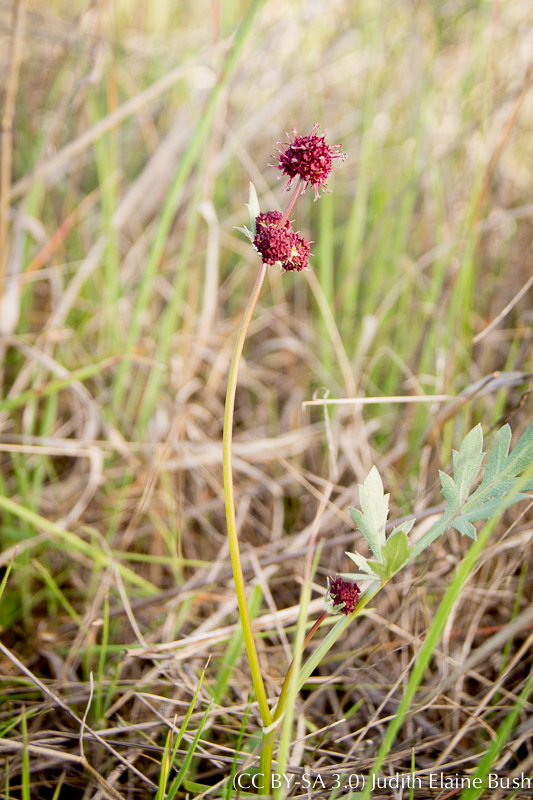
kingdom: Plantae
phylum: Tracheophyta
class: Magnoliopsida
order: Apiales
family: Apiaceae
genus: Sanicula
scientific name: Sanicula bipinnatifida
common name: Shoe-buttons
